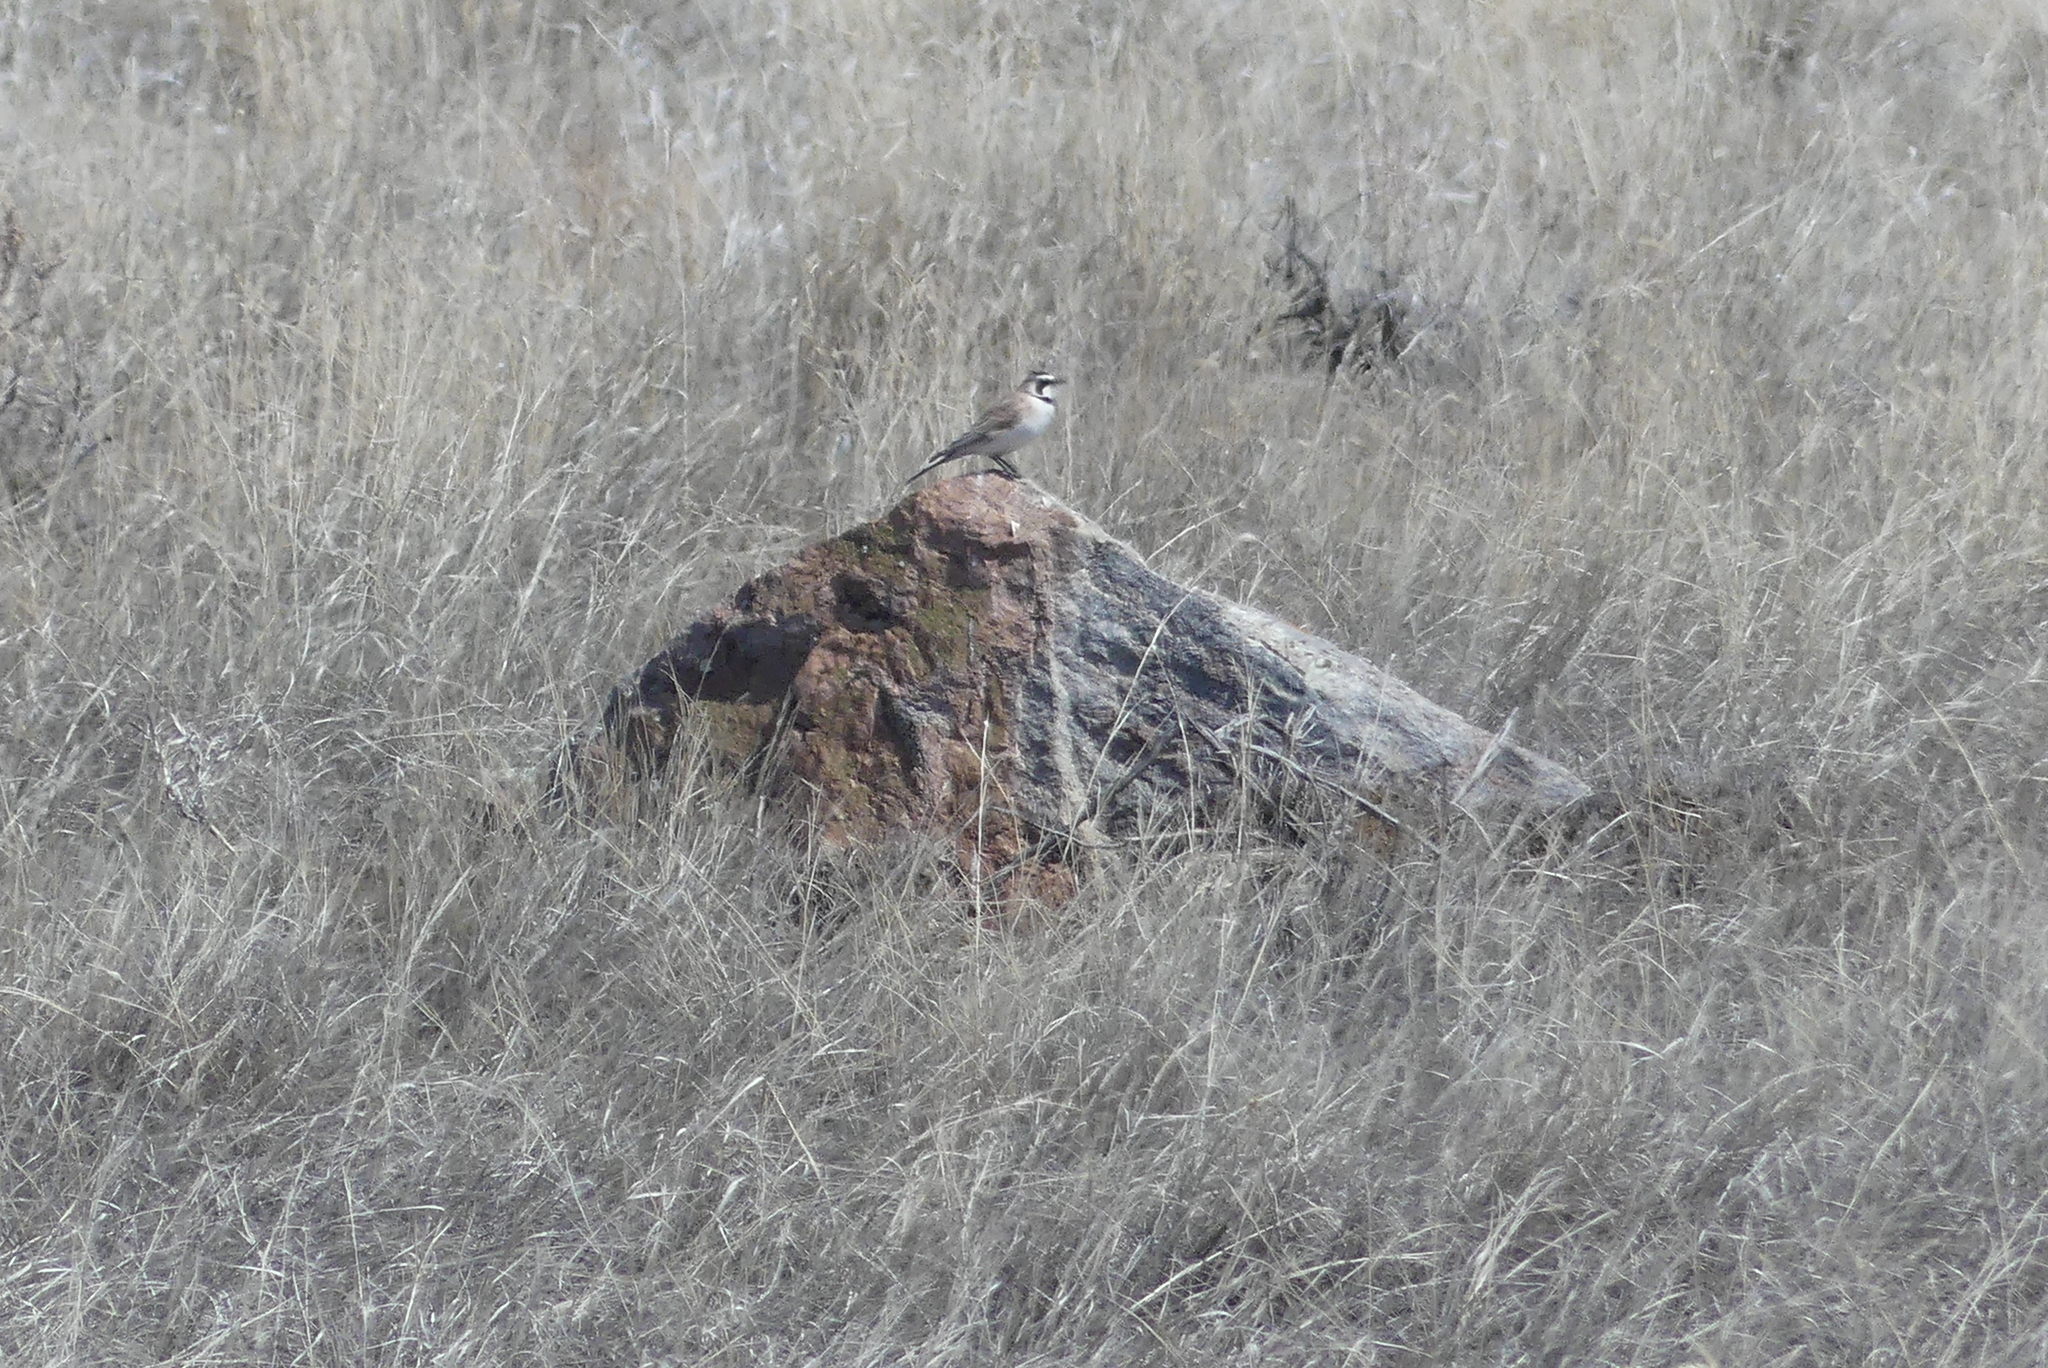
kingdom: Animalia
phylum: Chordata
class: Aves
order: Passeriformes
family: Alaudidae
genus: Eremophila
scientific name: Eremophila alpestris
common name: Horned lark
